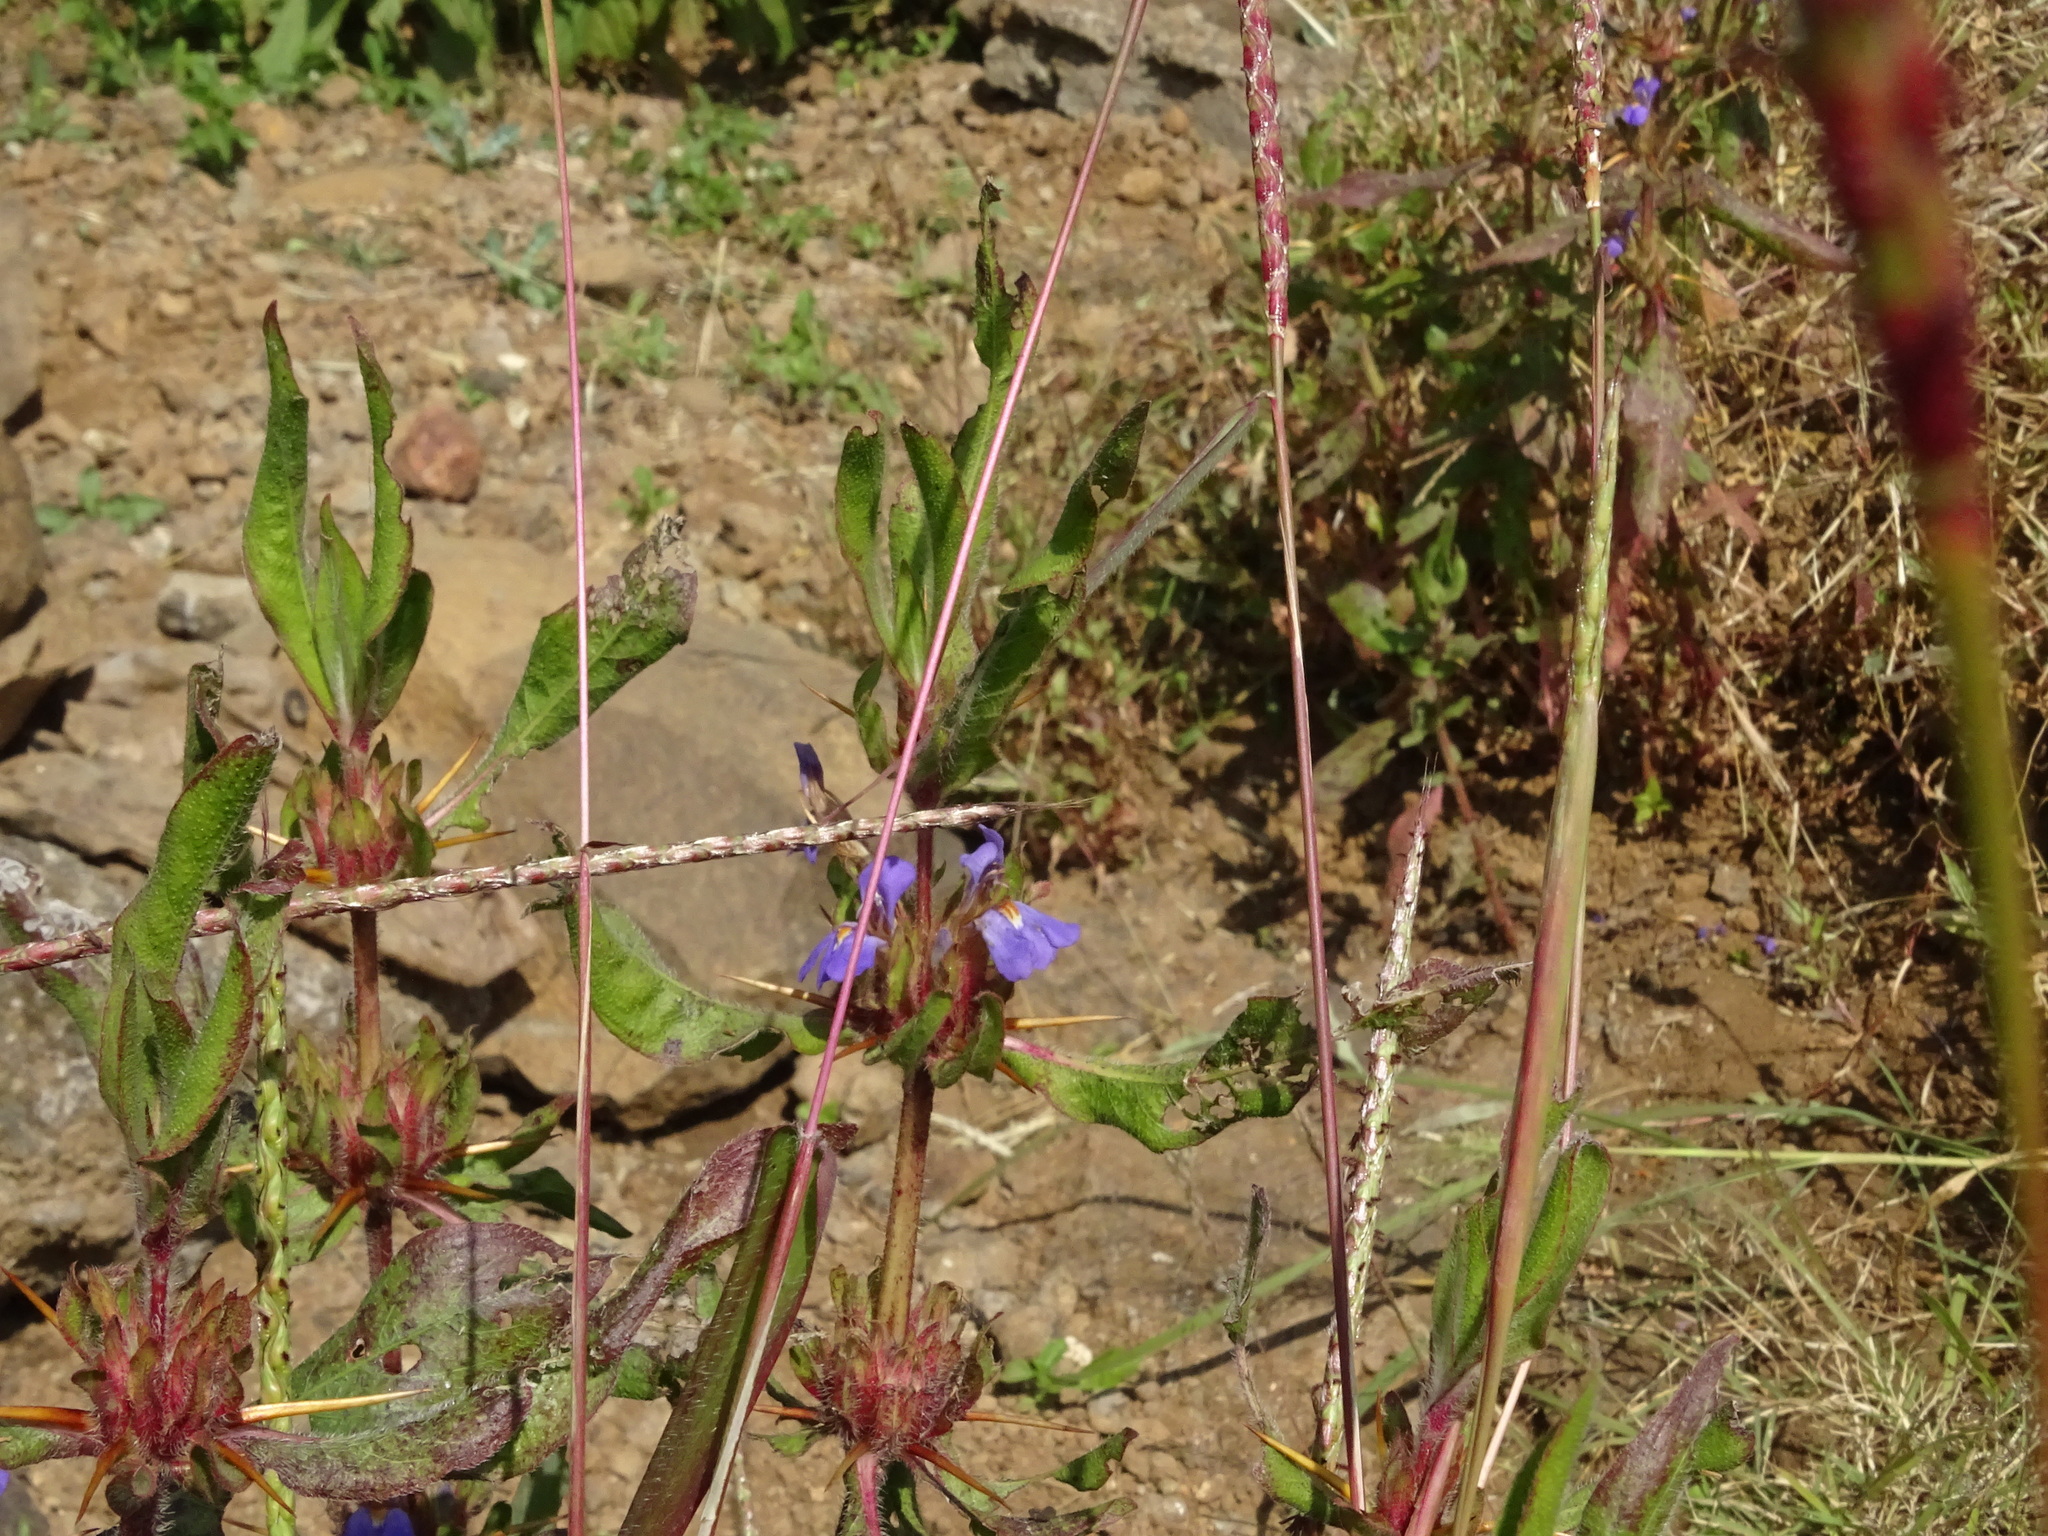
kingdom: Plantae
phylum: Tracheophyta
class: Magnoliopsida
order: Lamiales
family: Acanthaceae
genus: Hygrophila
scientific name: Hygrophila auriculata
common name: Hygrophila
